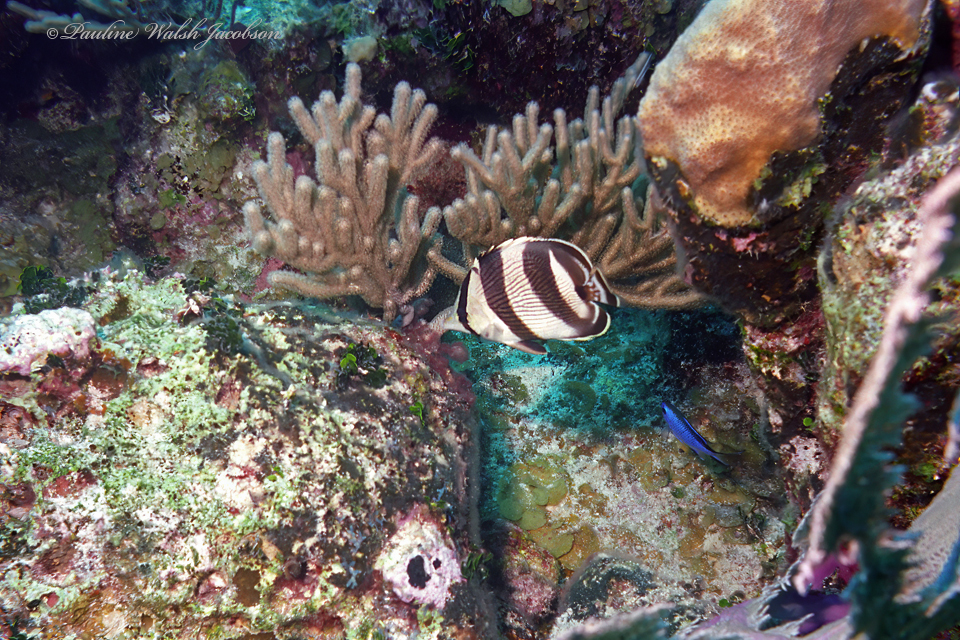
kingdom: Animalia
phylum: Chordata
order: Perciformes
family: Chaetodontidae
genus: Chaetodon
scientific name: Chaetodon striatus
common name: Banded butterflyfish
